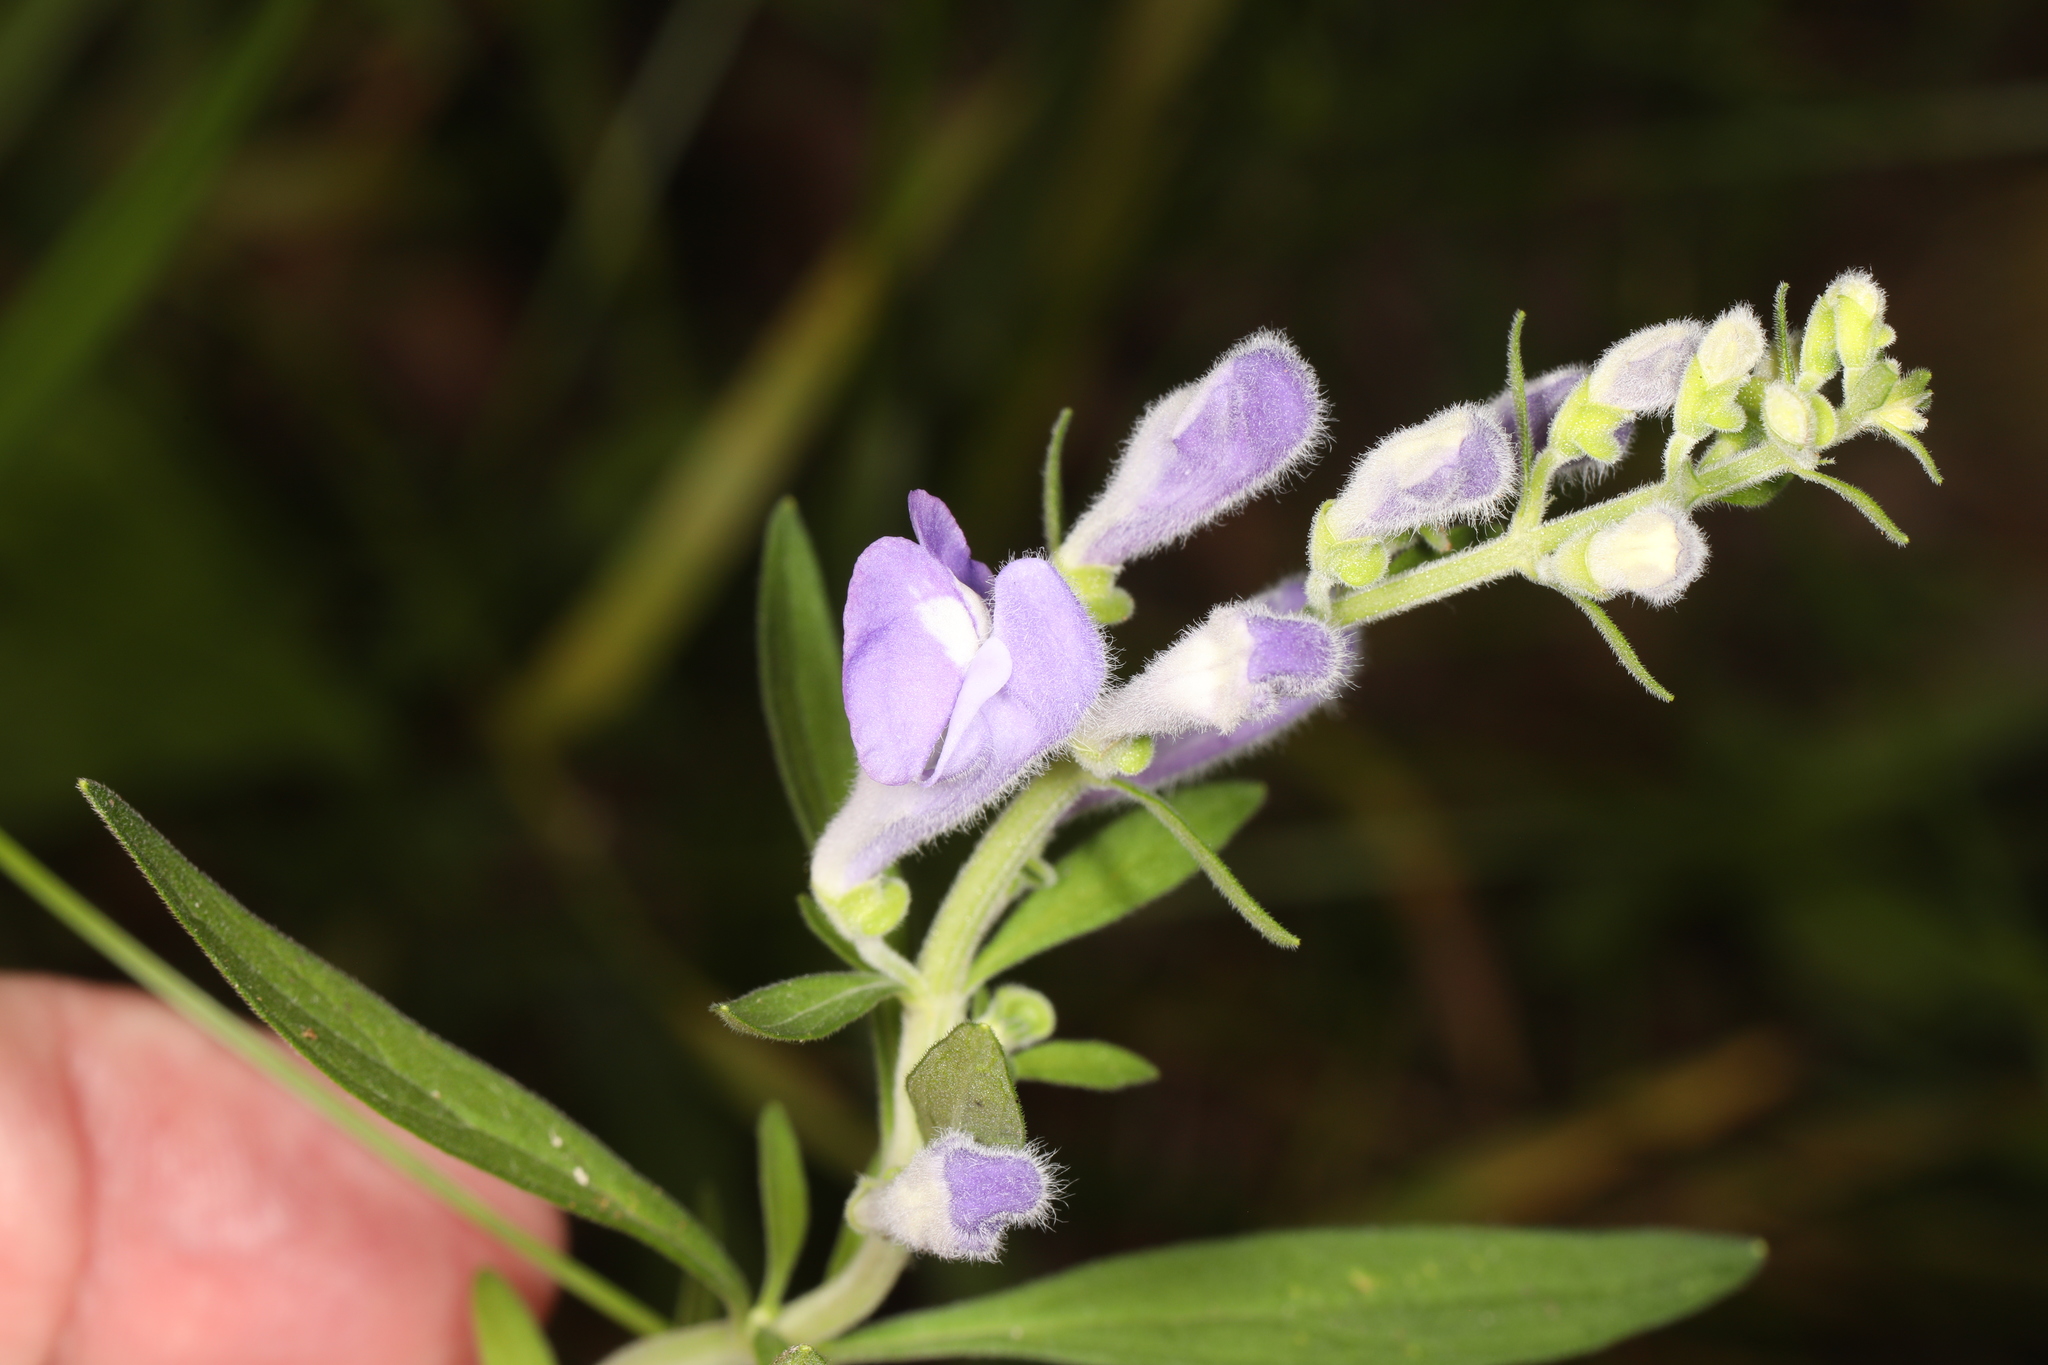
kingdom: Plantae
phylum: Tracheophyta
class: Magnoliopsida
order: Lamiales
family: Lamiaceae
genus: Scutellaria
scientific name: Scutellaria integrifolia
